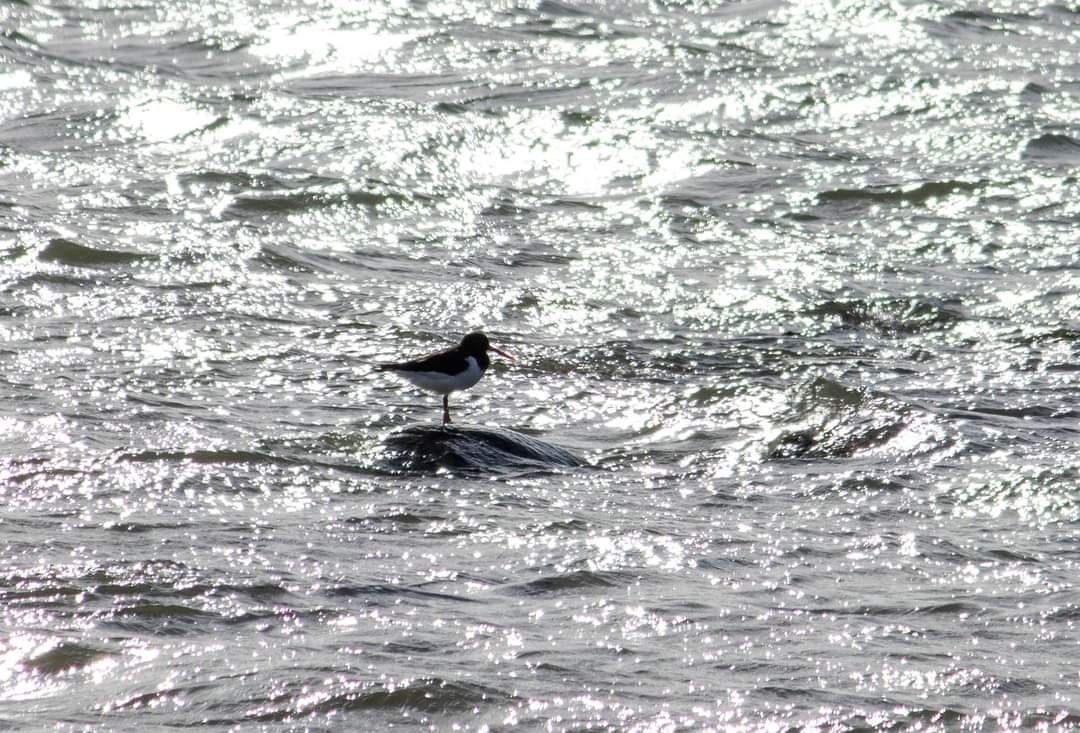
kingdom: Animalia
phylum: Chordata
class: Aves
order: Charadriiformes
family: Haematopodidae
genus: Haematopus
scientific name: Haematopus ostralegus
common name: Eurasian oystercatcher
